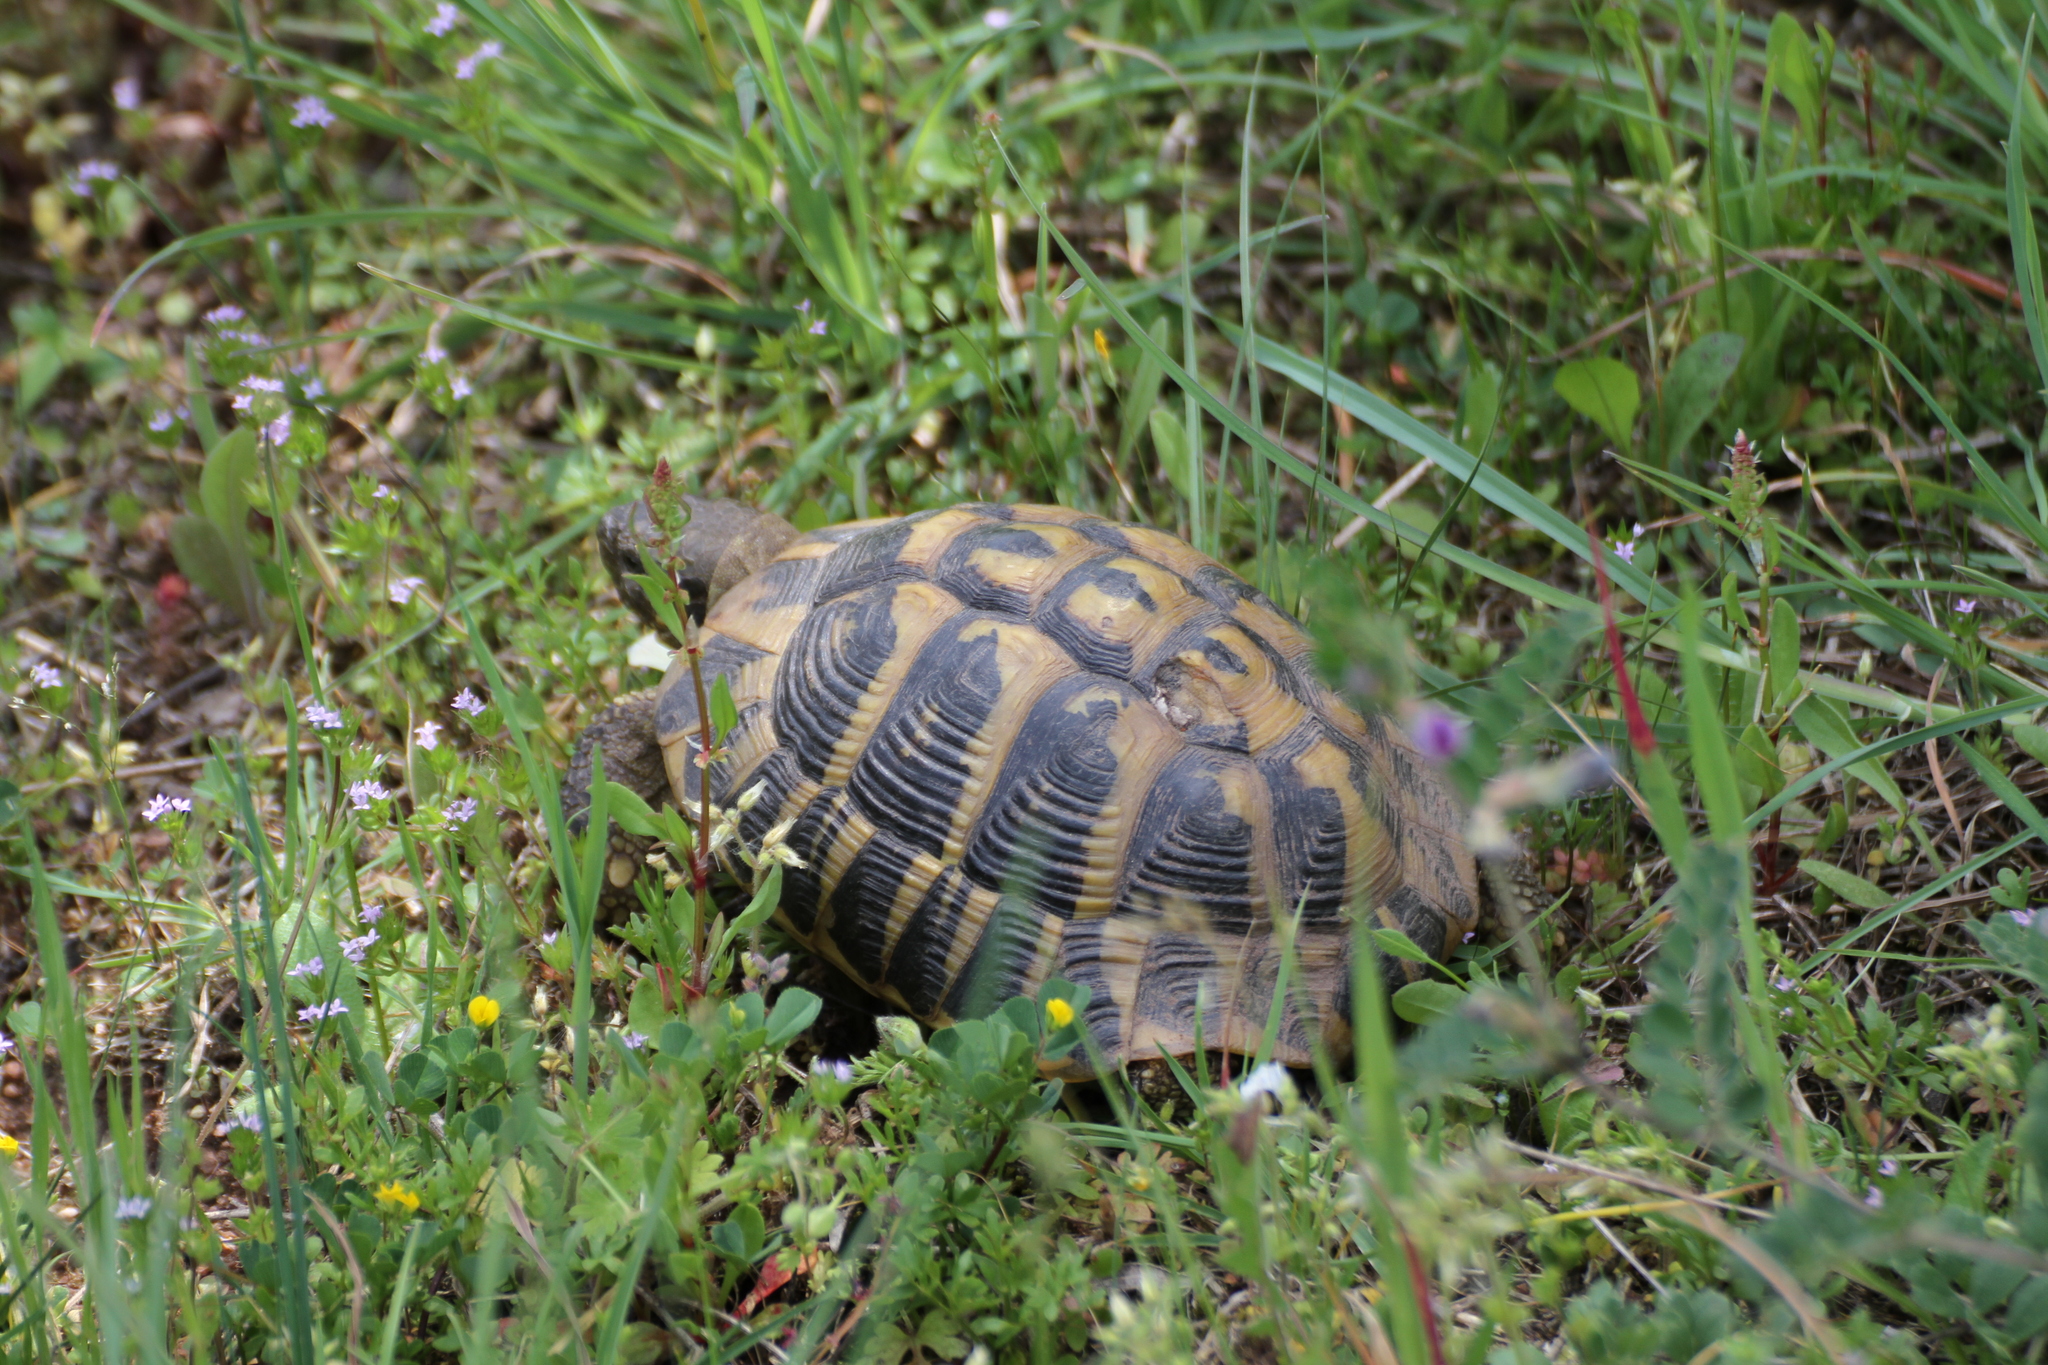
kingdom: Animalia
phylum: Chordata
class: Testudines
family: Testudinidae
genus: Testudo
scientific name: Testudo hermanni
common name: Hermann's tortoise
